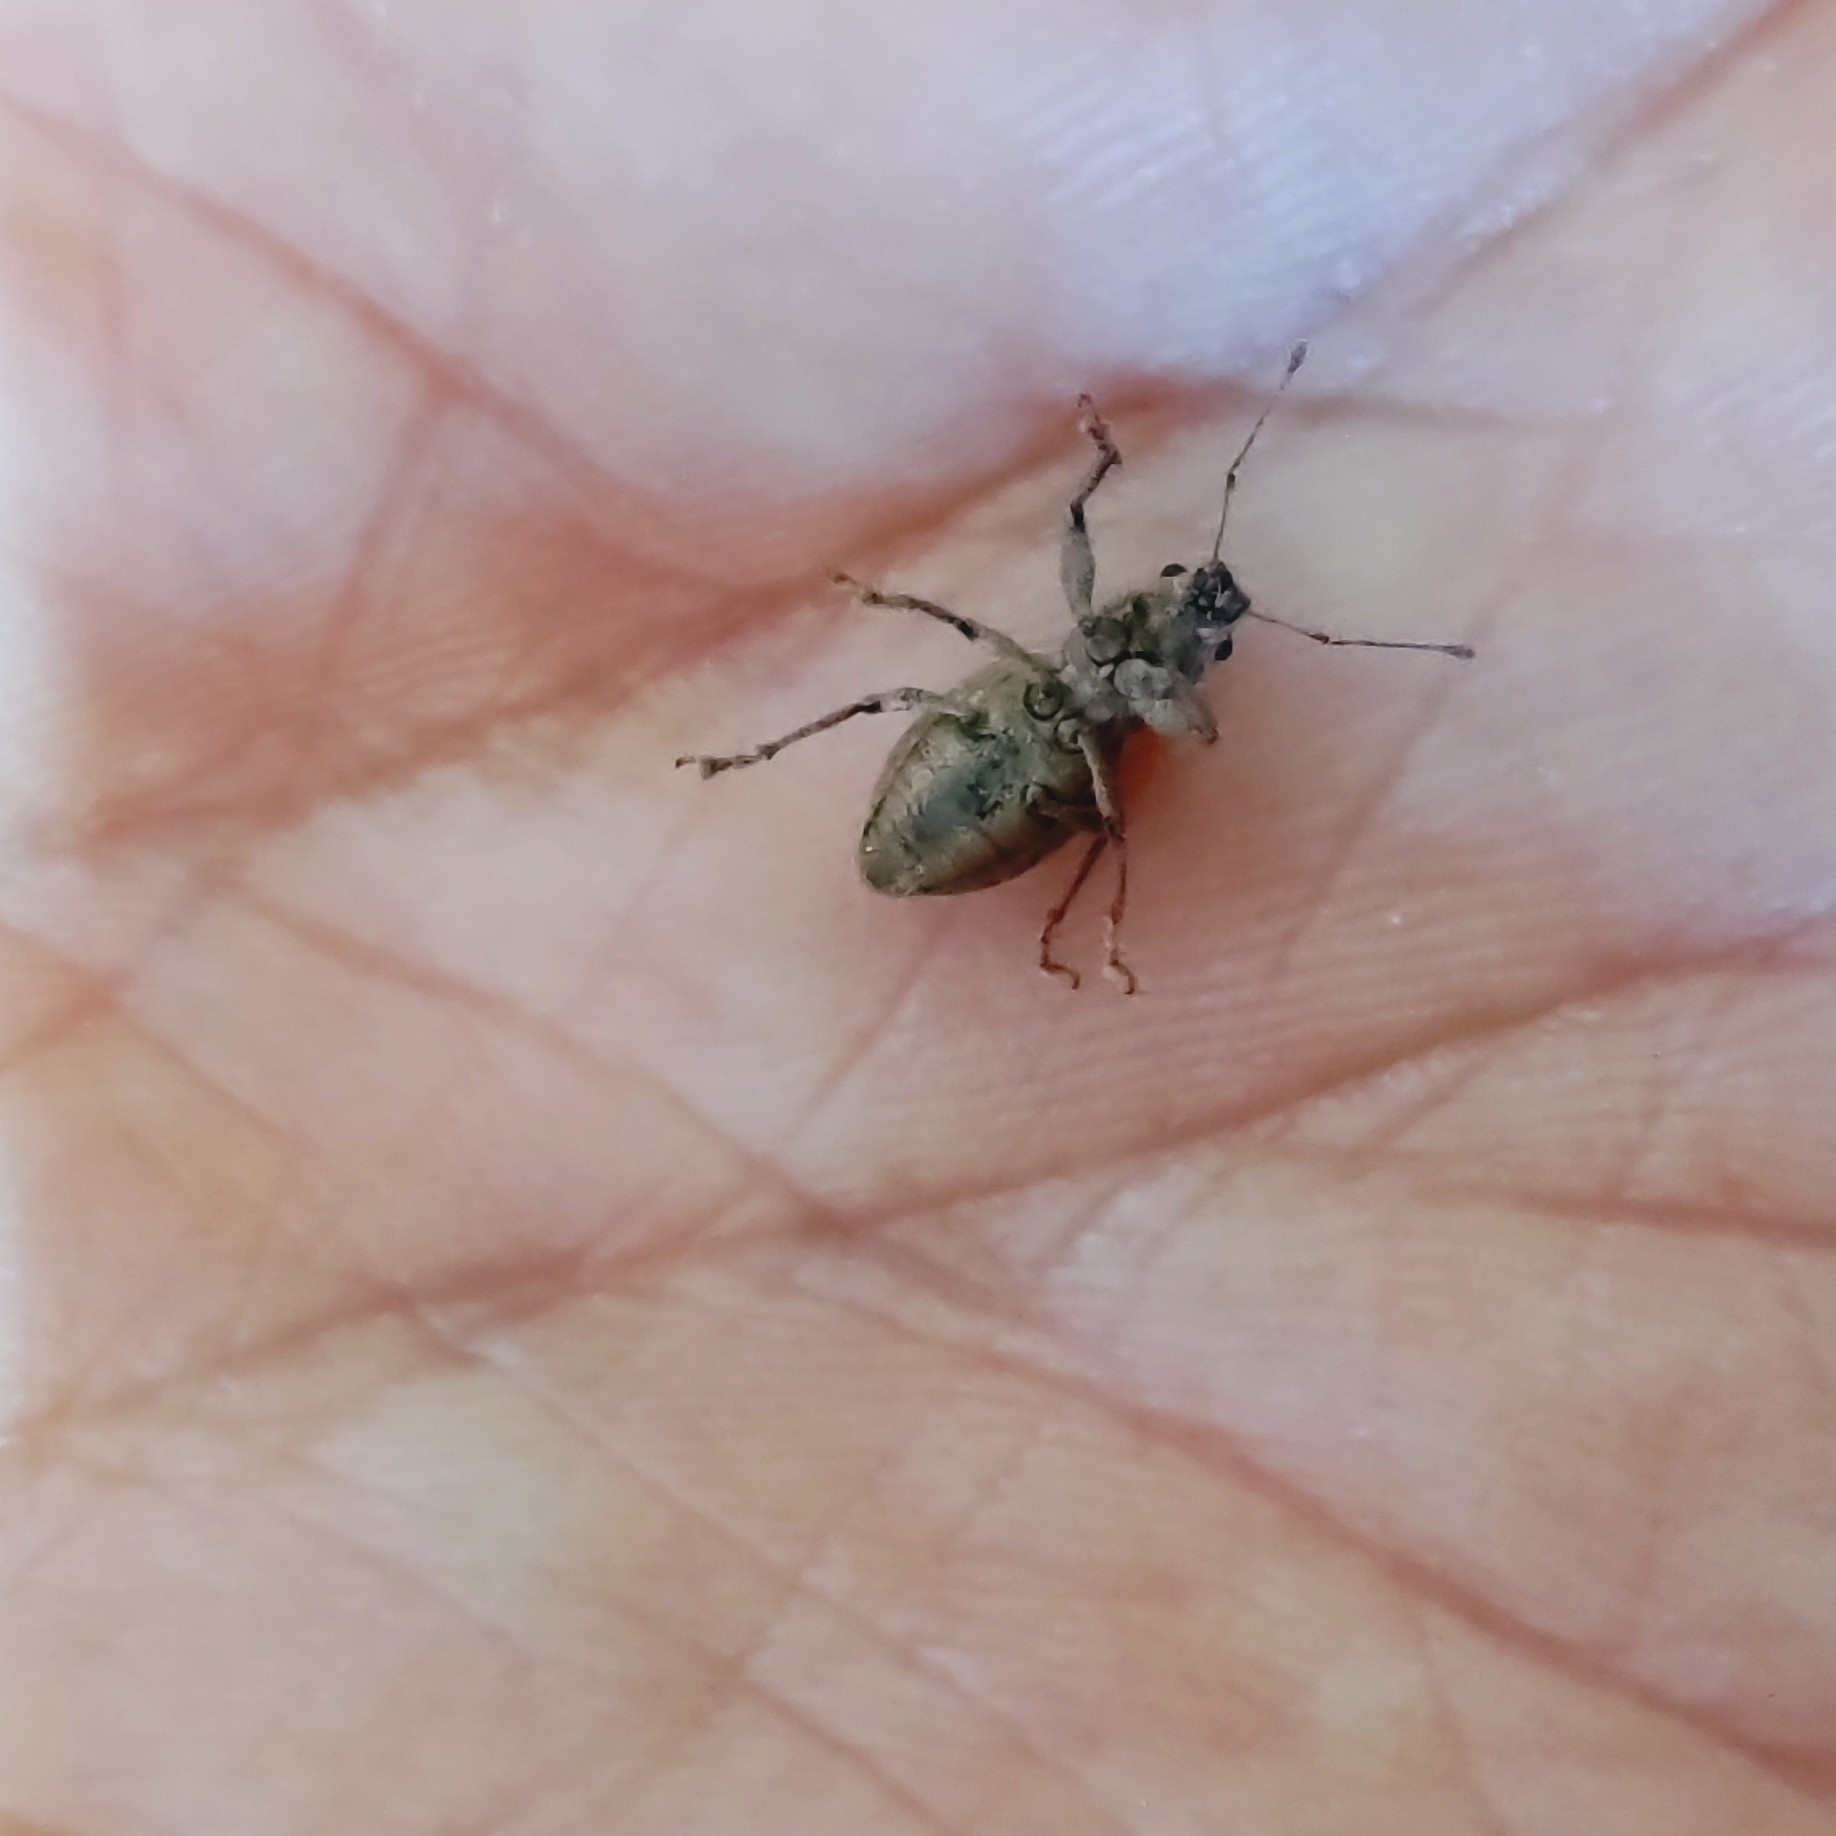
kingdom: Animalia
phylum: Arthropoda
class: Insecta
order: Coleoptera
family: Curculionidae
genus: Naupactus
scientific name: Naupactus cervinus
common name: Fuller rose beetle
